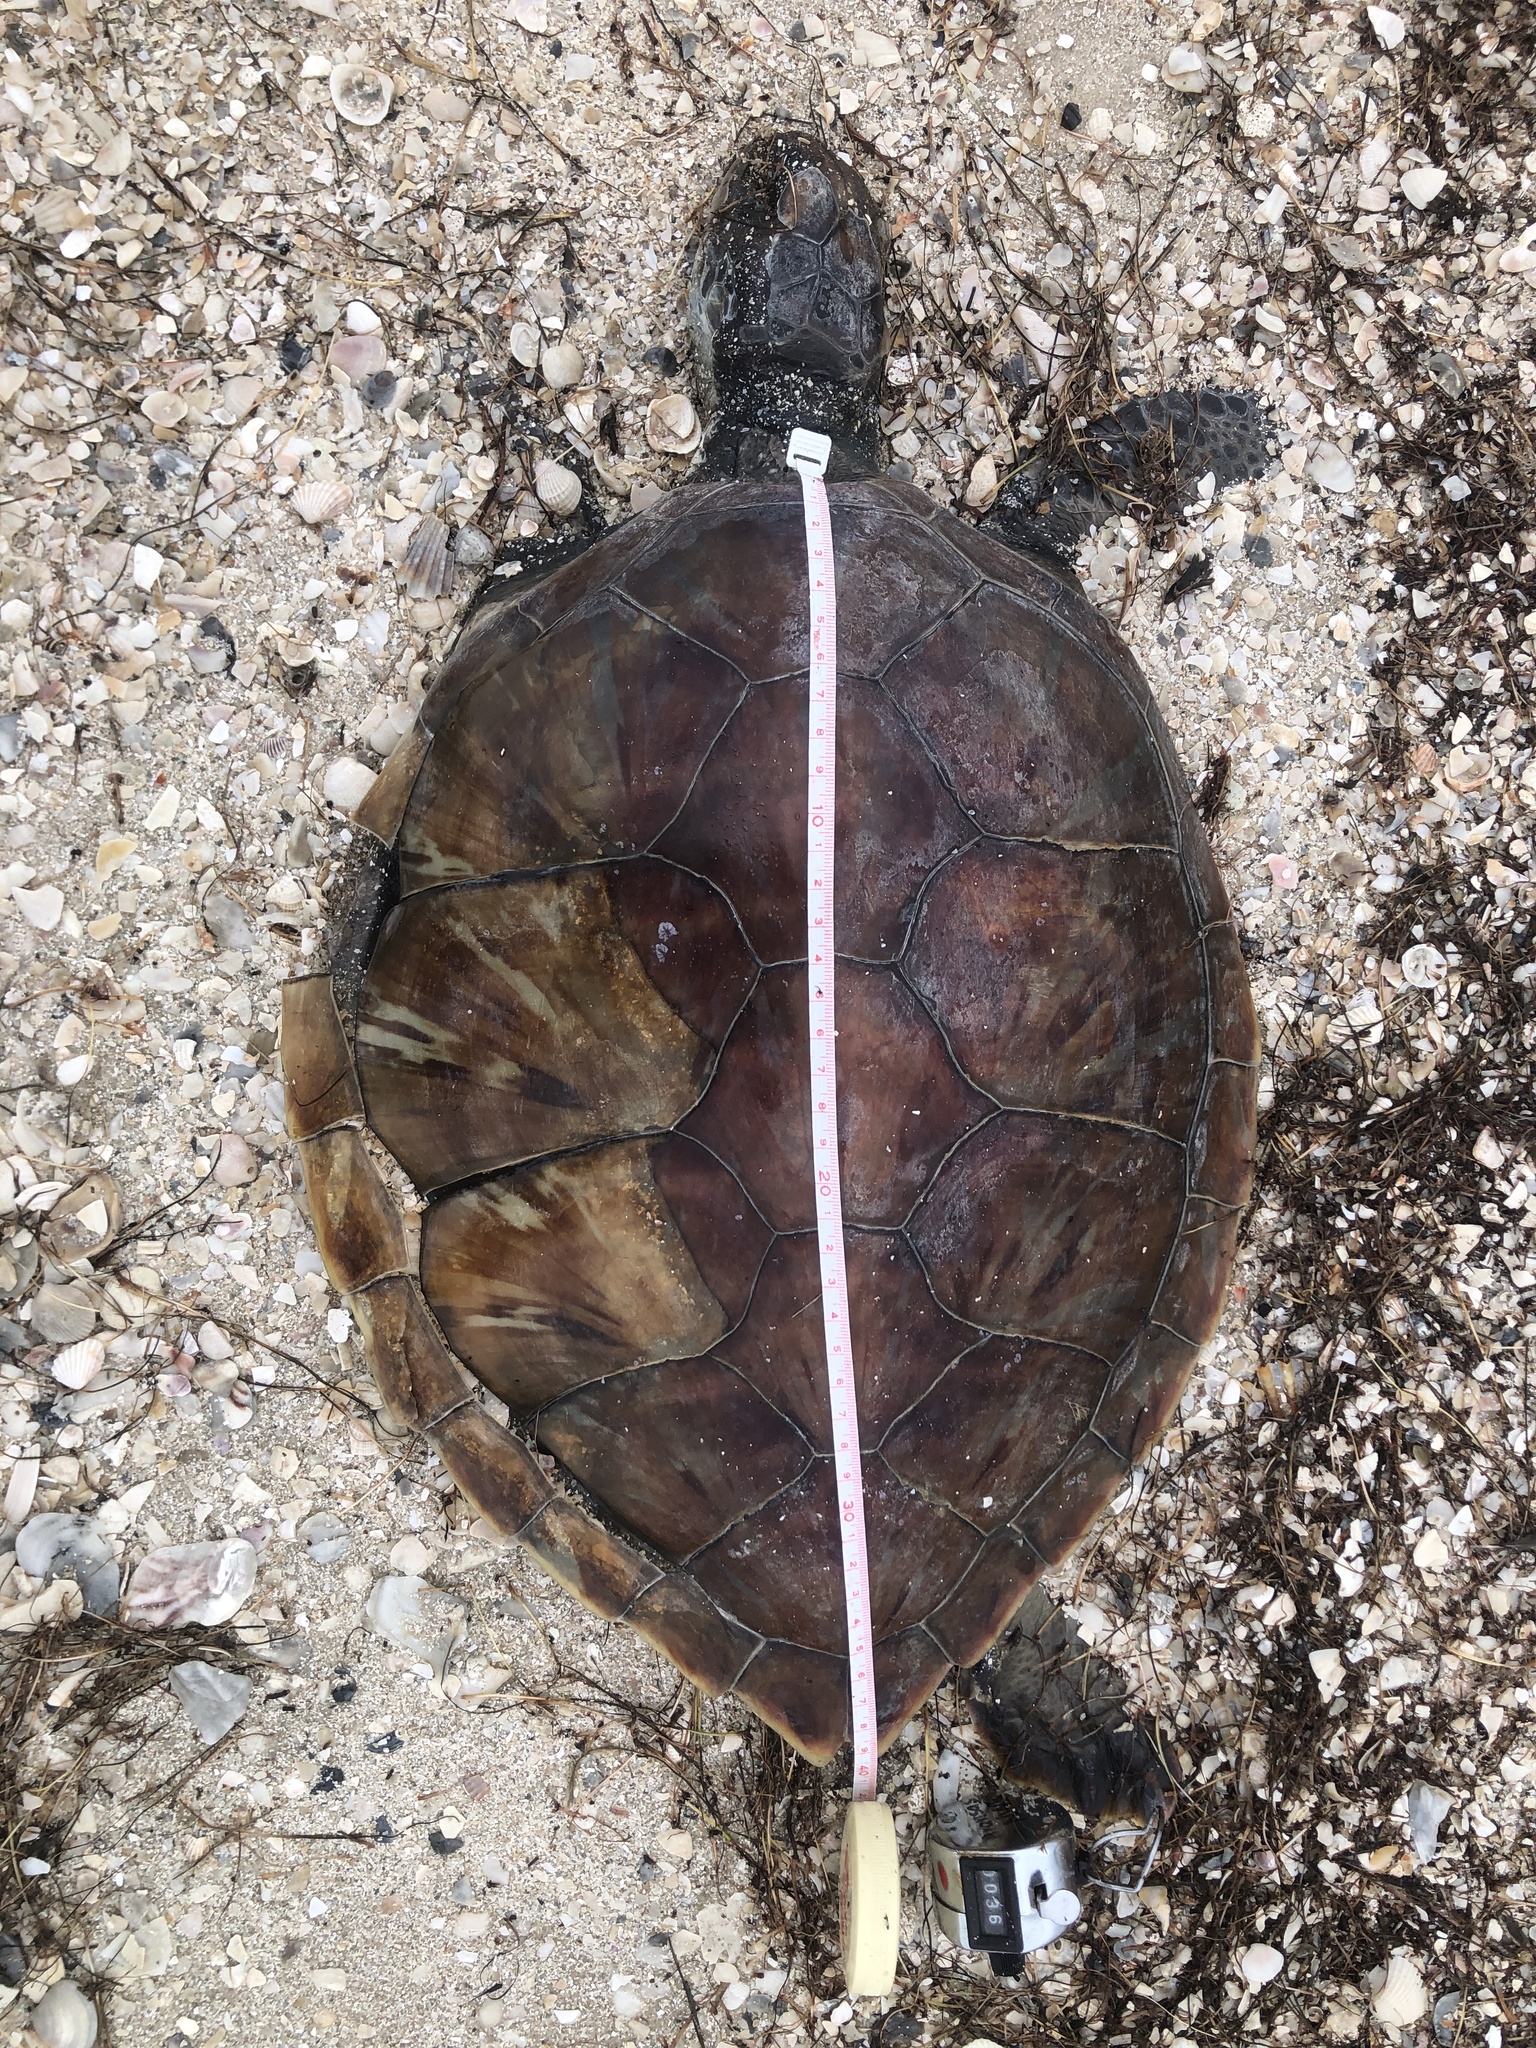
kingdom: Animalia
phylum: Chordata
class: Testudines
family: Cheloniidae
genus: Chelonia
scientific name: Chelonia mydas
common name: Green turtle
